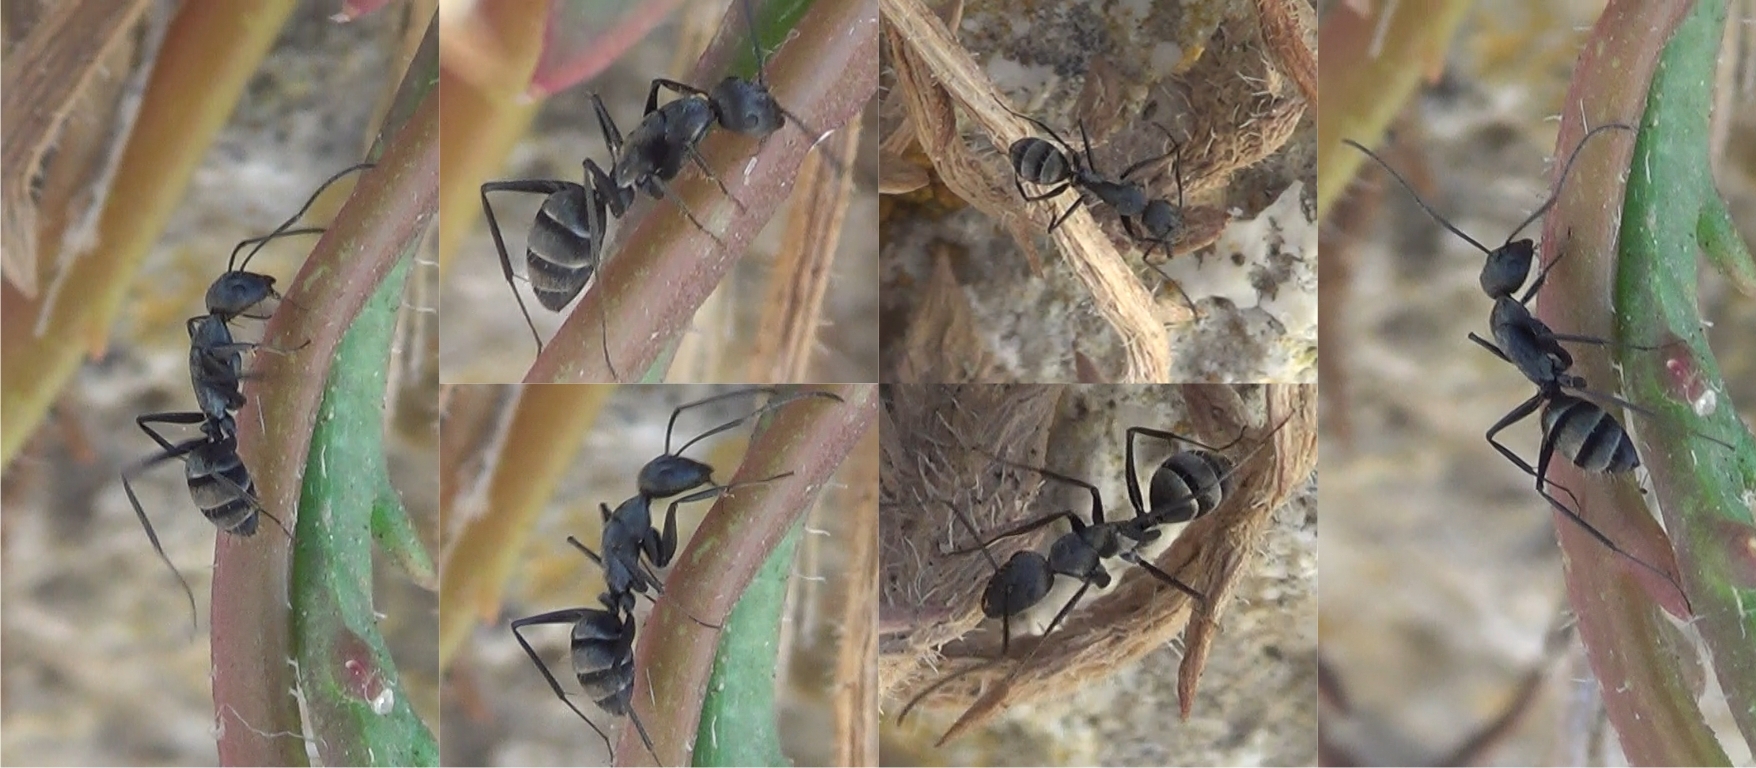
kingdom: Animalia
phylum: Arthropoda
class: Insecta
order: Hymenoptera
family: Formicidae
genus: Camponotus
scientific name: Camponotus micans
